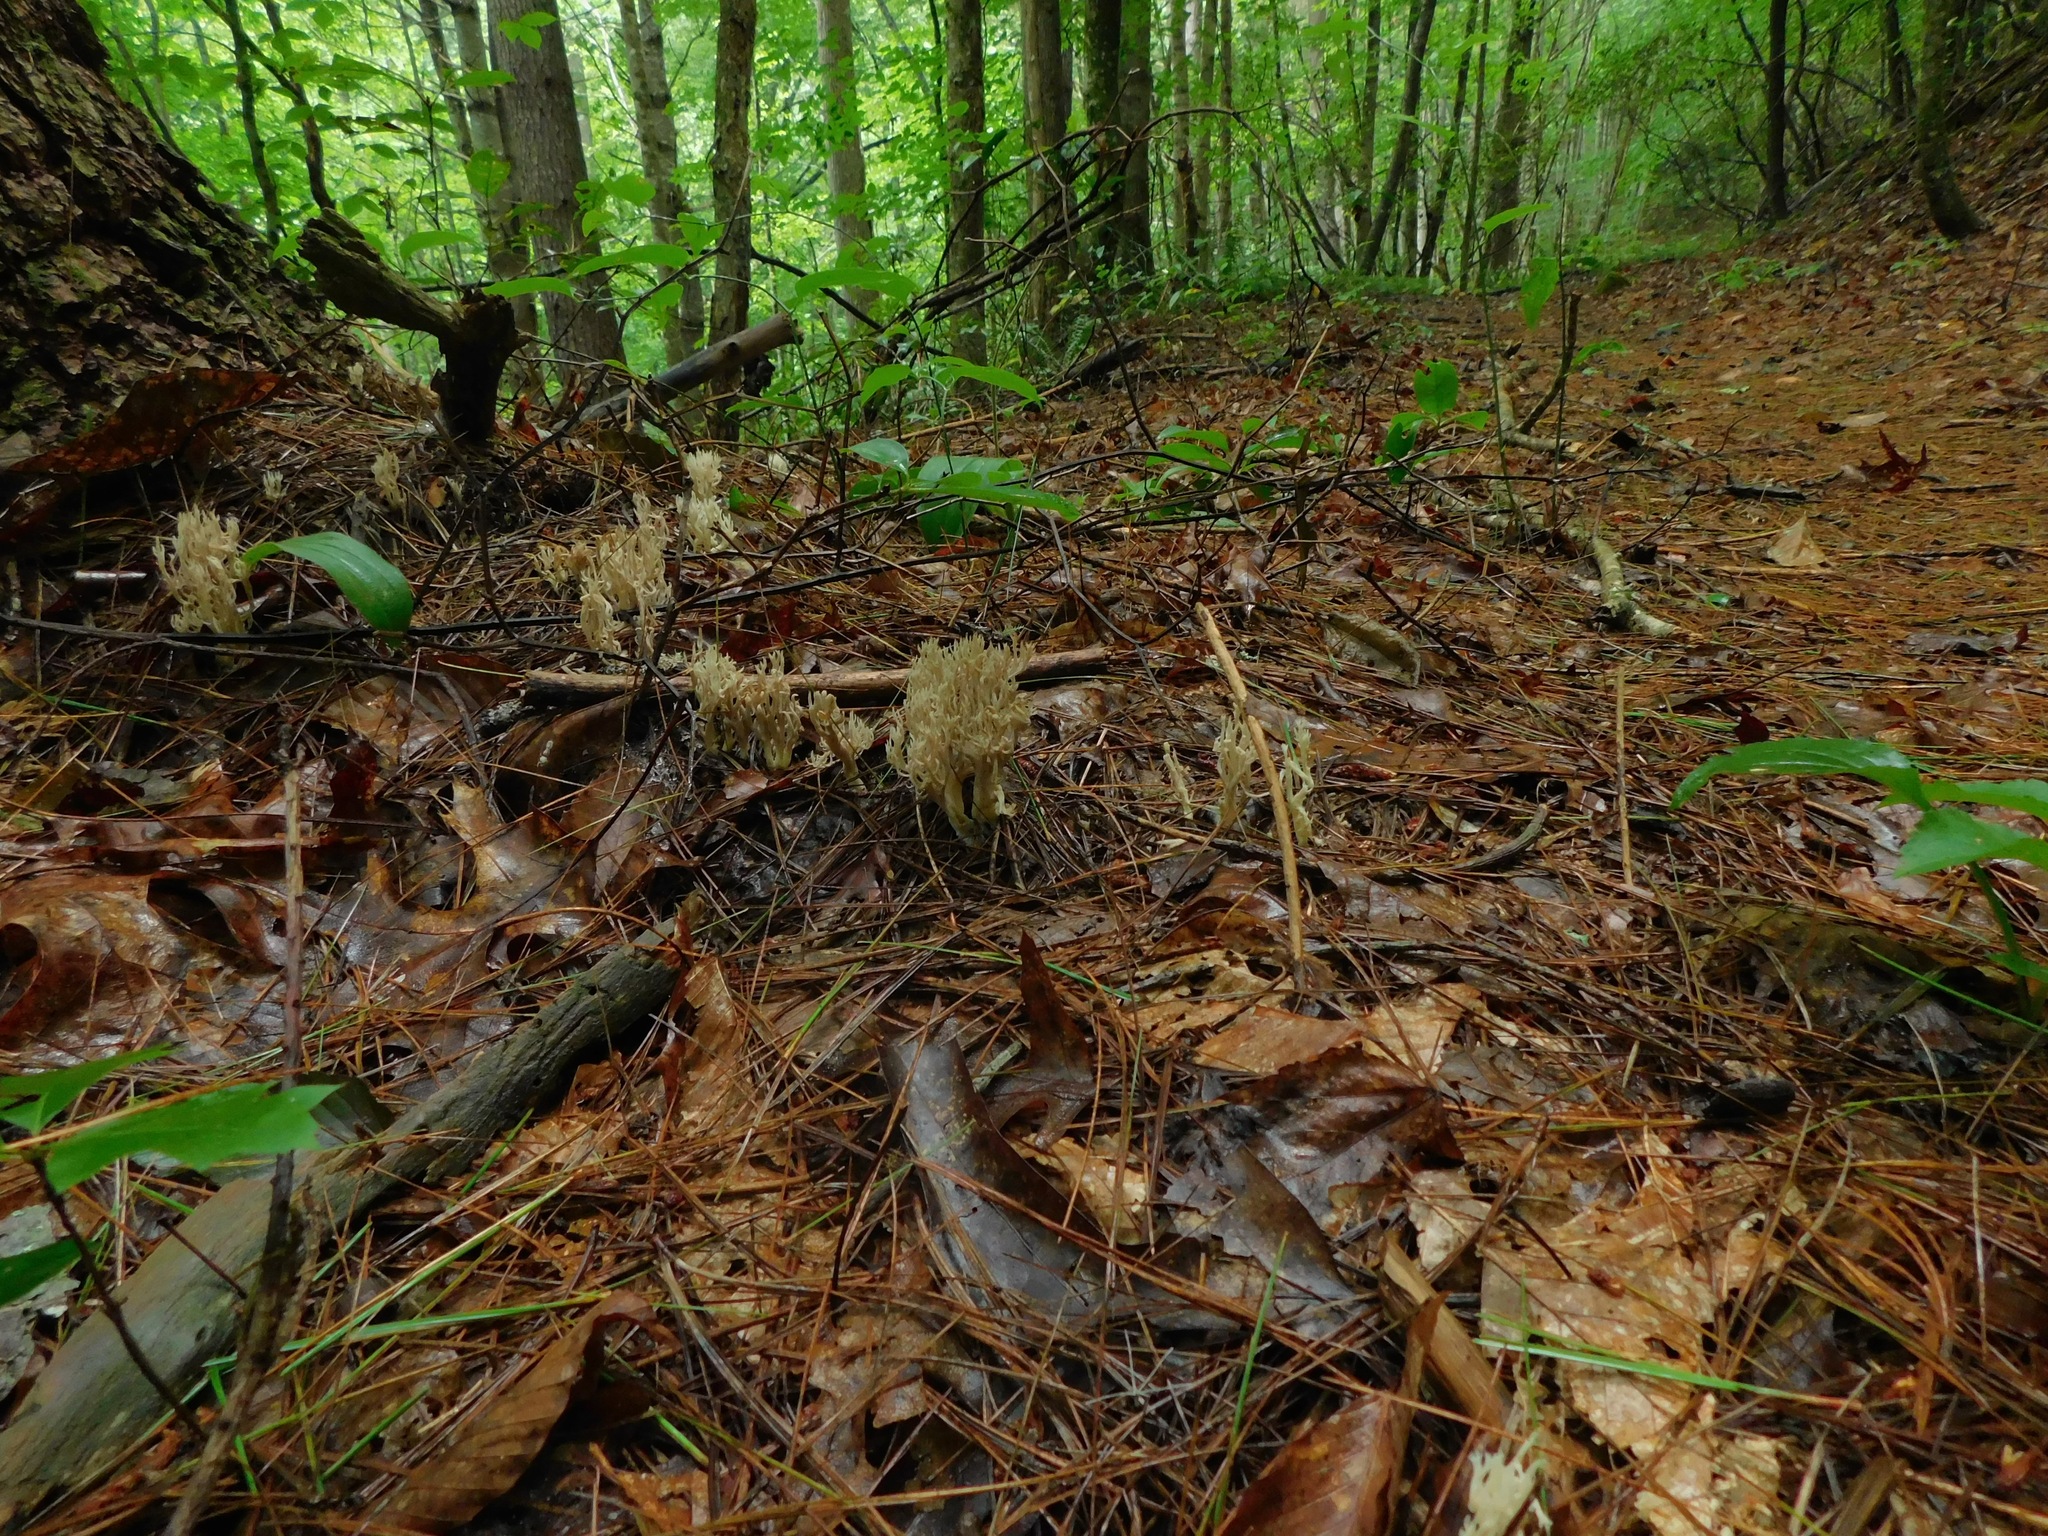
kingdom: Fungi
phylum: Basidiomycota
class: Agaricomycetes
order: Cantharellales
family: Hydnaceae
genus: Clavulina
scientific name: Clavulina cinerea
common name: Grey coral
